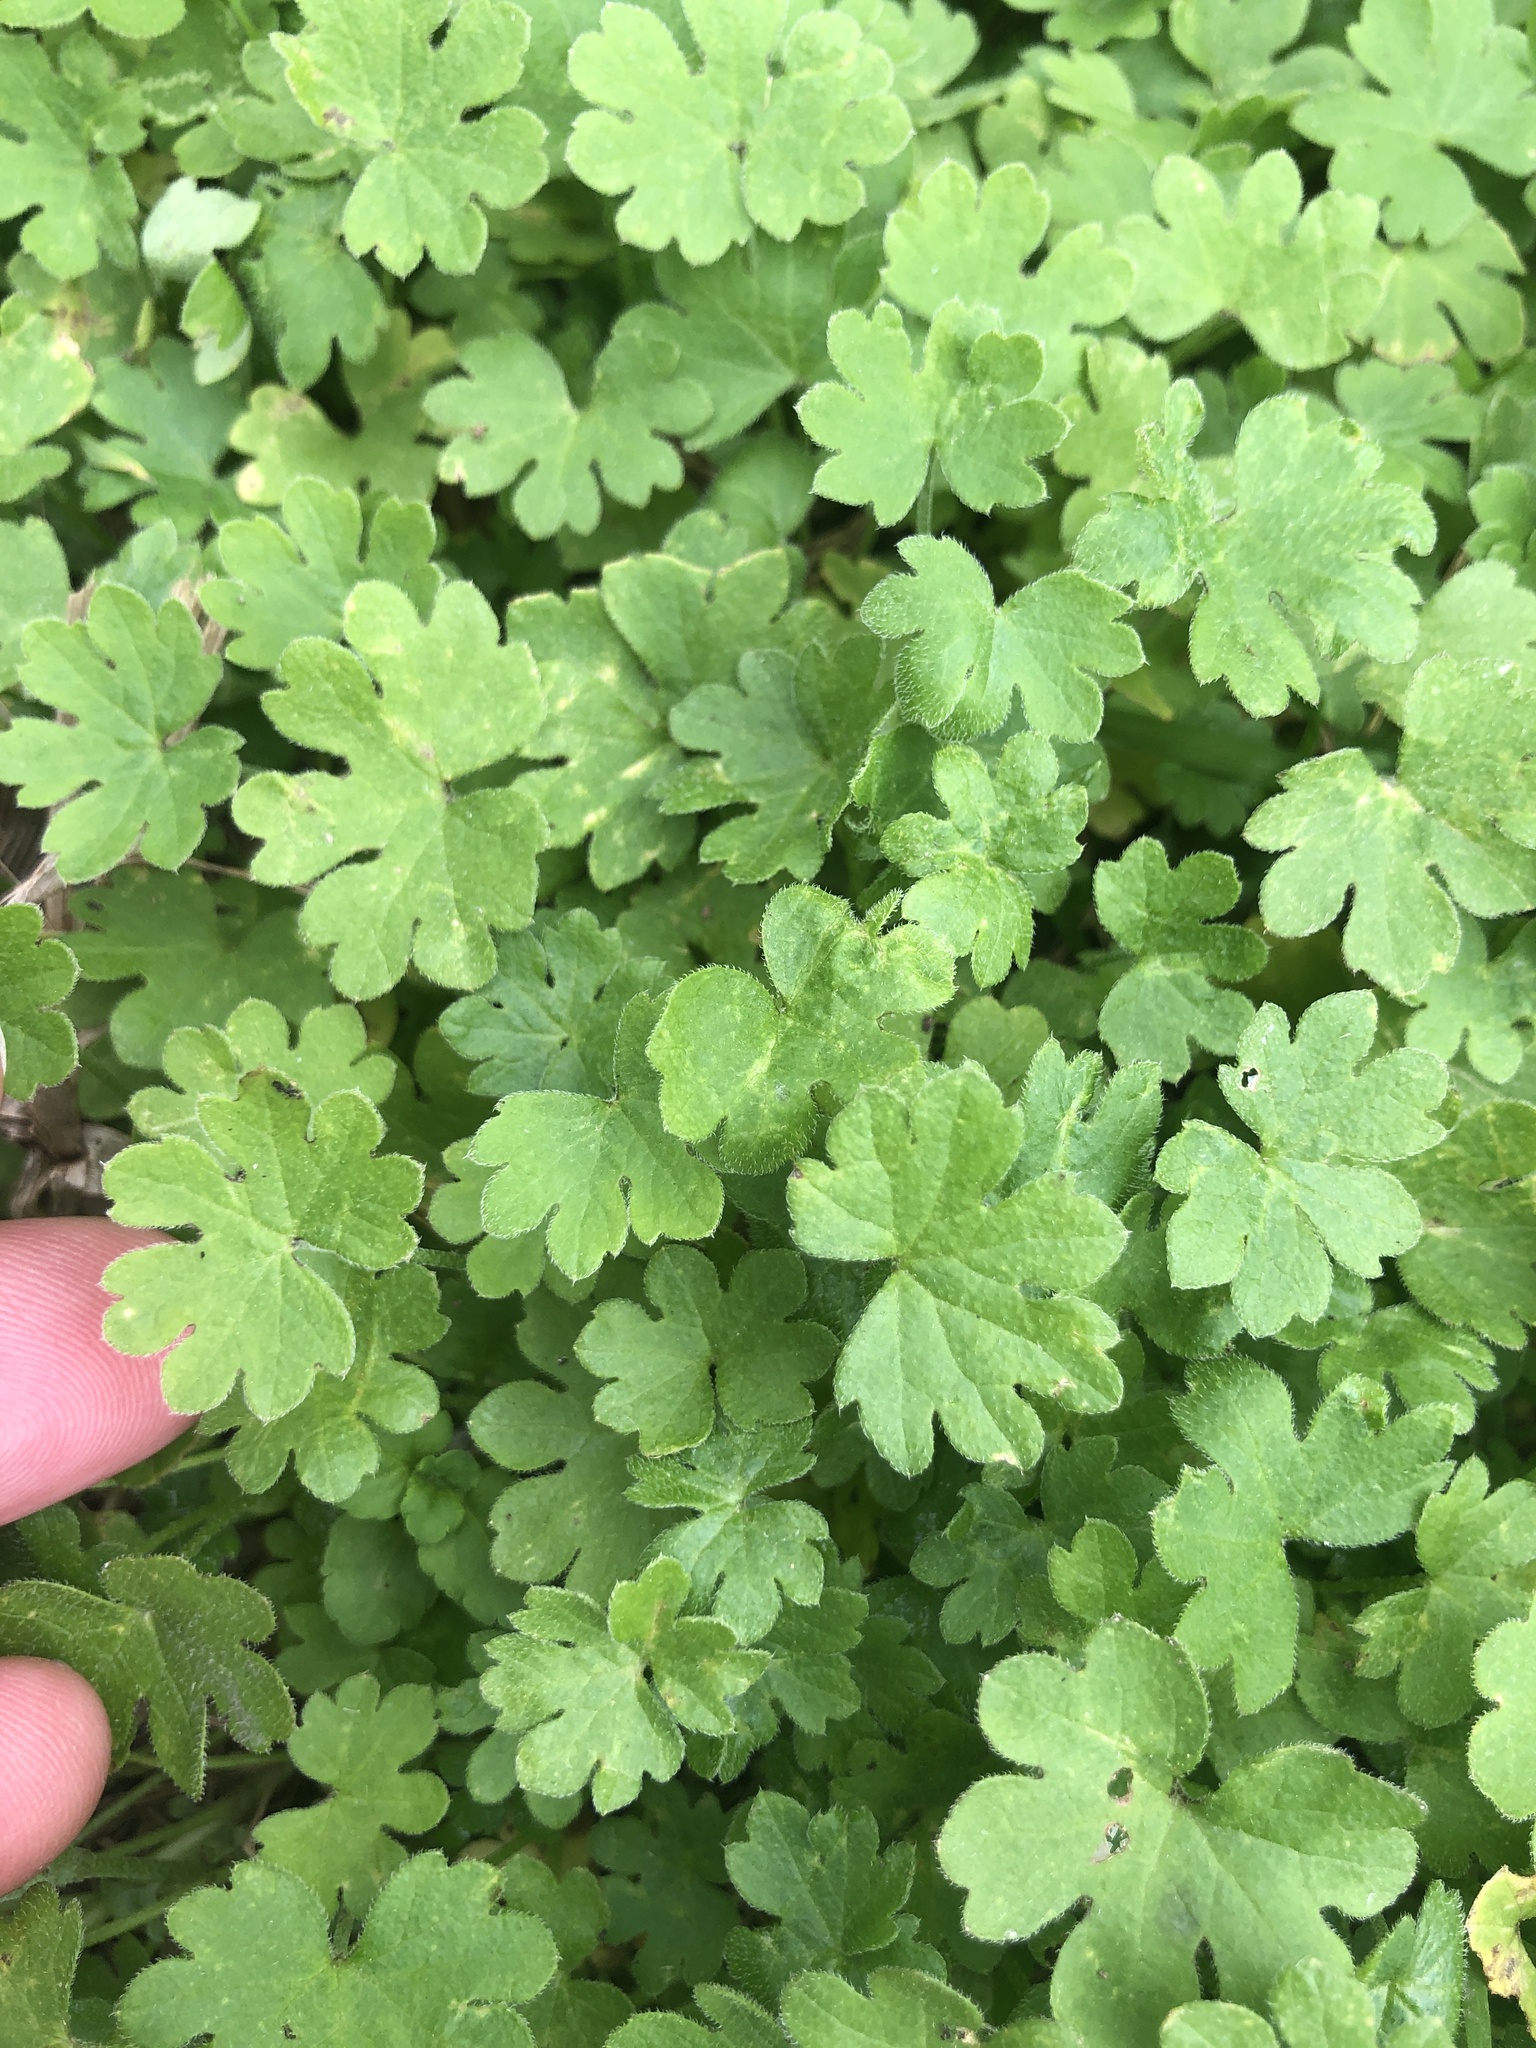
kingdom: Plantae
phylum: Tracheophyta
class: Magnoliopsida
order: Apiales
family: Apiaceae
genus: Bowlesia
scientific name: Bowlesia incana
